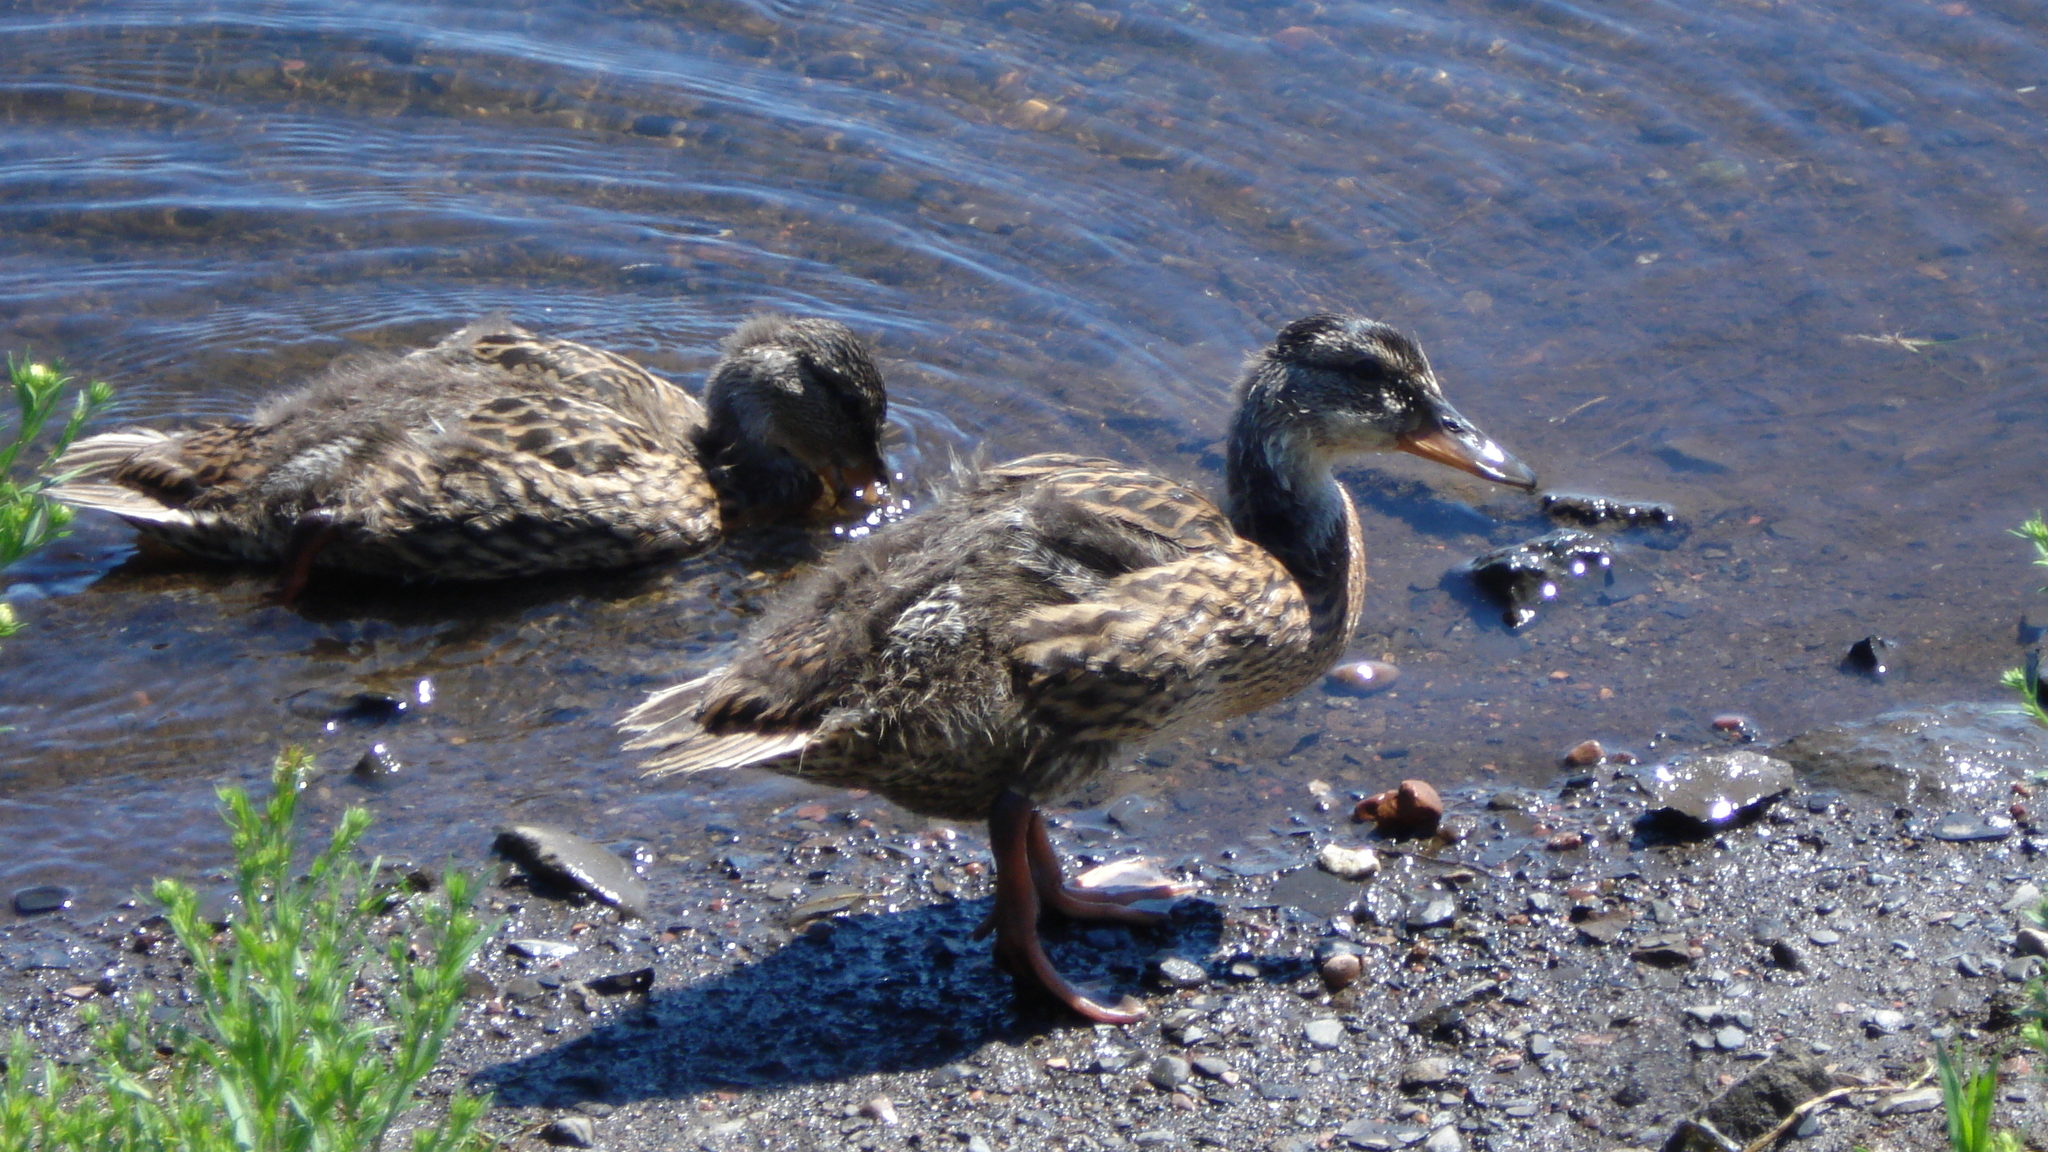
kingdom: Animalia
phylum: Chordata
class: Aves
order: Anseriformes
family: Anatidae
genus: Anas
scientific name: Anas platyrhynchos
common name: Mallard
